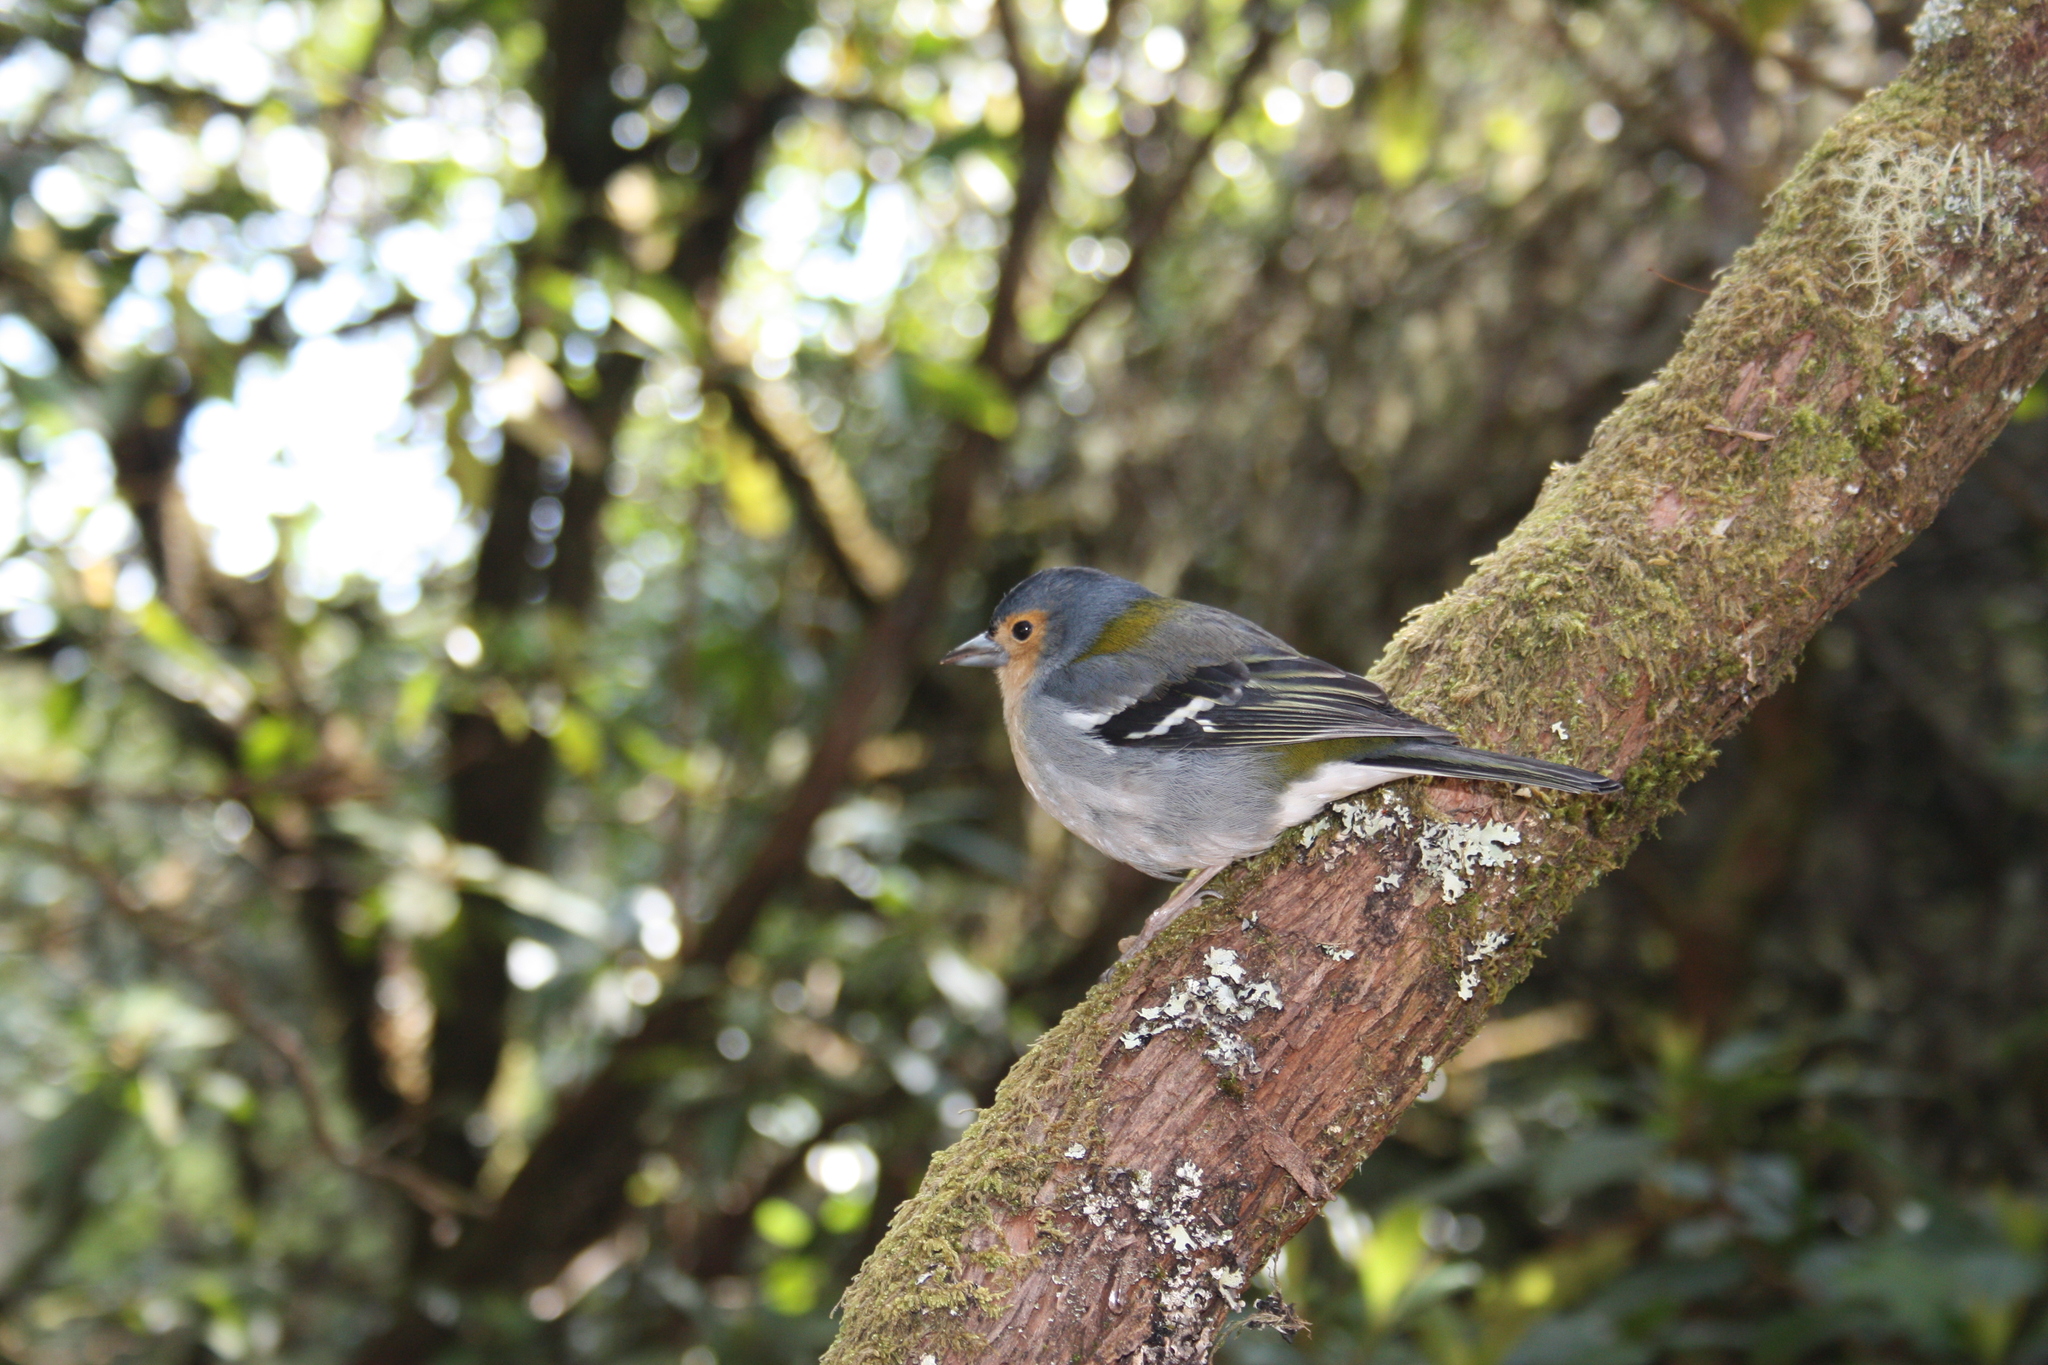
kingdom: Animalia
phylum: Chordata
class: Aves
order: Passeriformes
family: Fringillidae
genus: Fringilla
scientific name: Fringilla maderensis
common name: Madeira chaffinch
